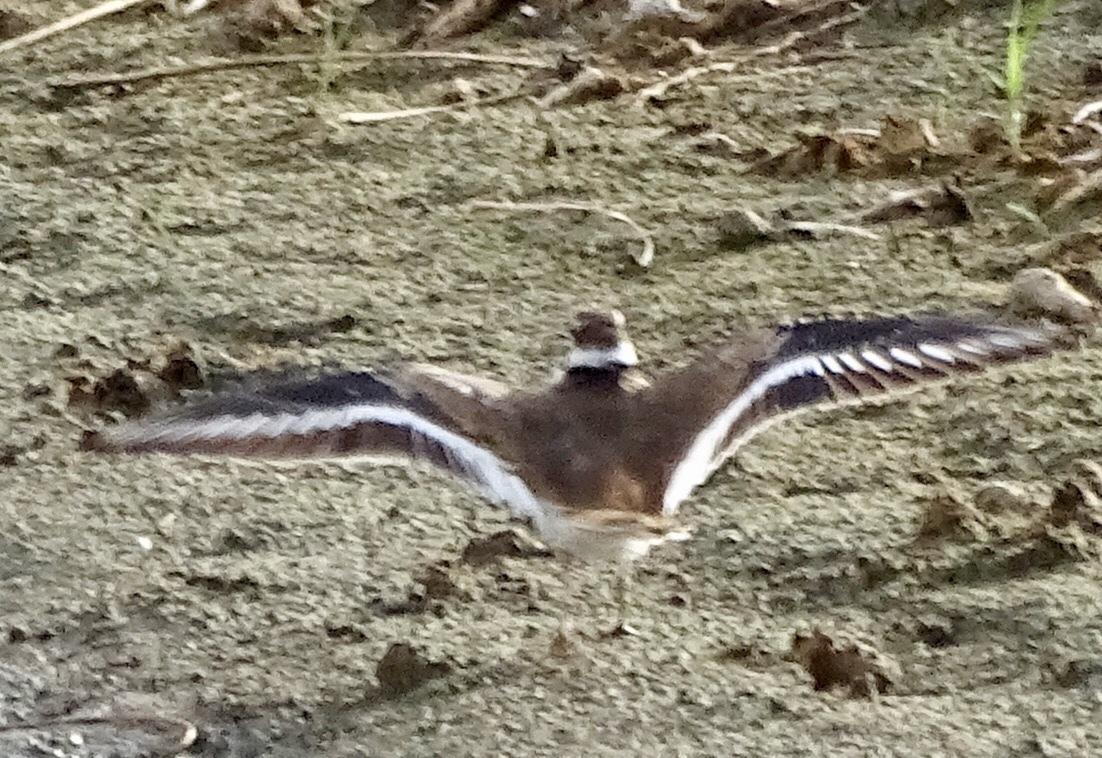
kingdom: Animalia
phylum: Chordata
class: Aves
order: Charadriiformes
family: Charadriidae
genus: Charadrius
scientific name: Charadrius vociferus
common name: Killdeer
